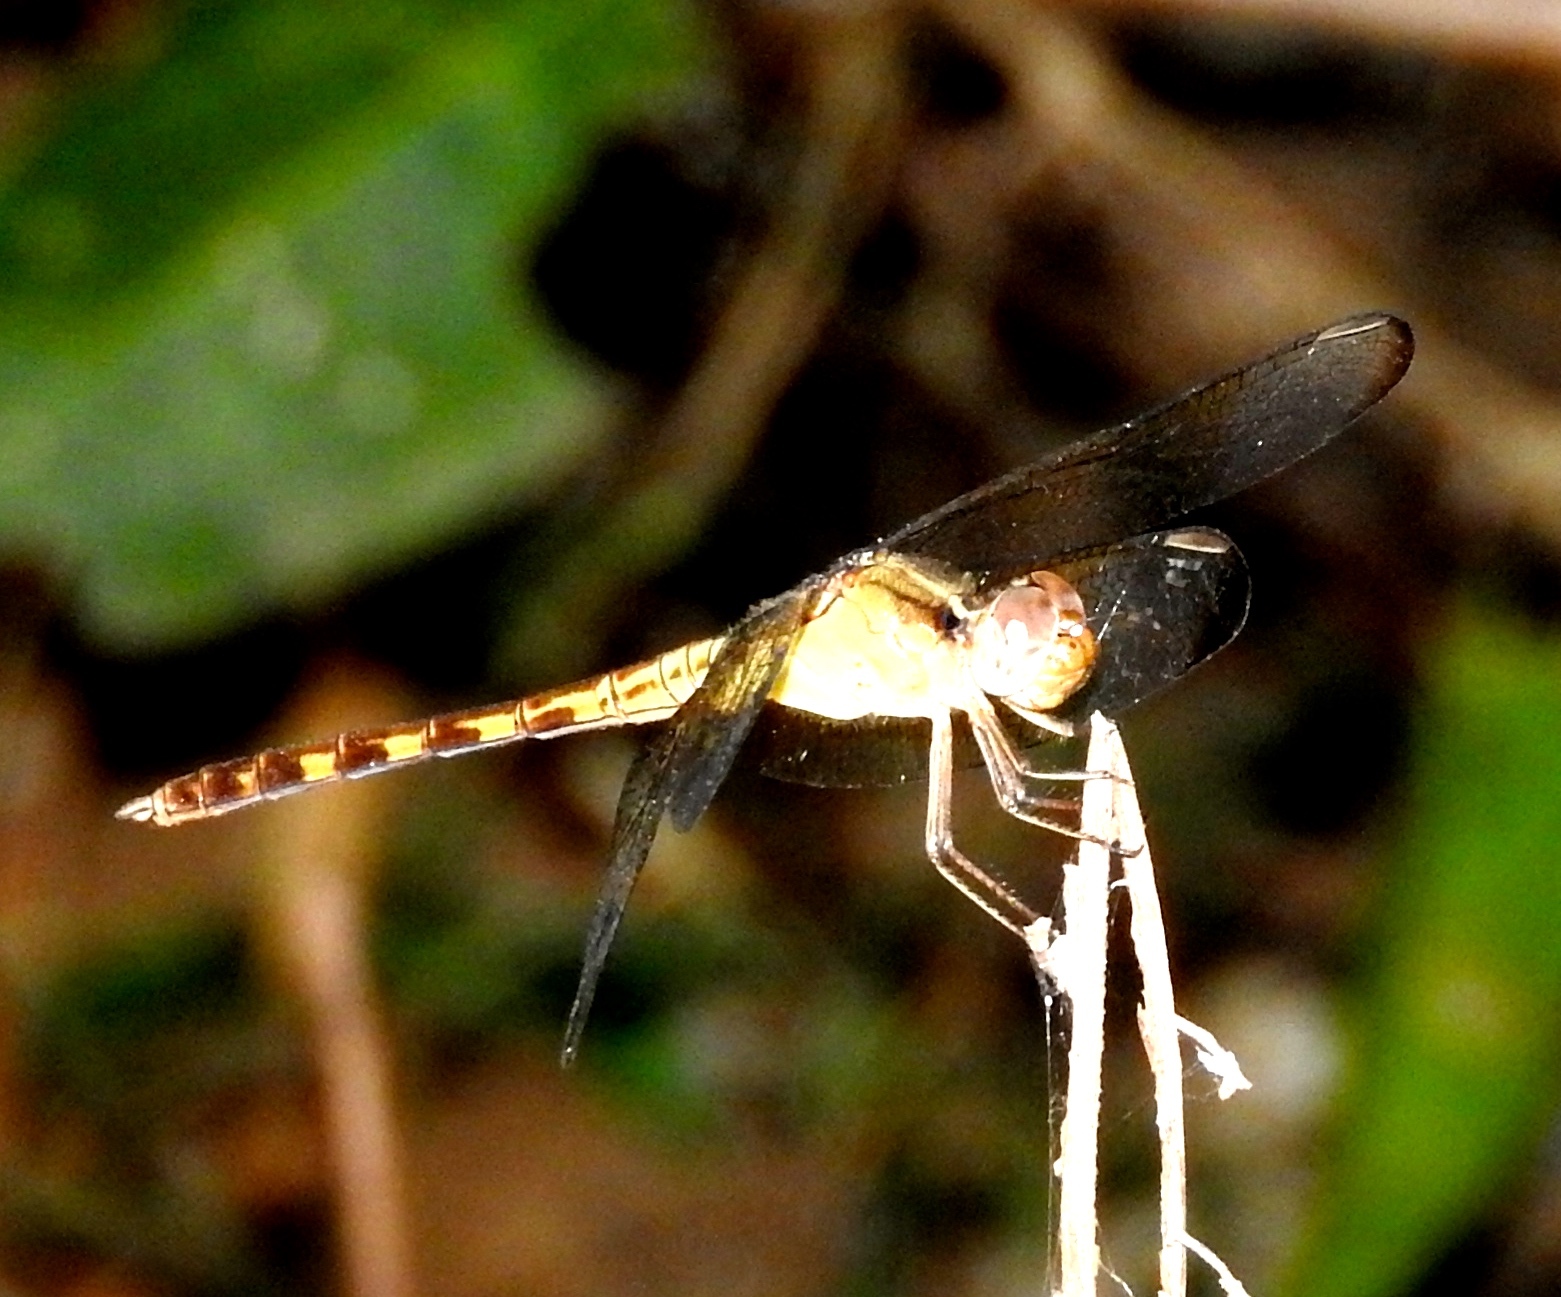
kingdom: Animalia
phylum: Arthropoda
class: Insecta
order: Odonata
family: Libellulidae
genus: Erythrodiplax
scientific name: Erythrodiplax
